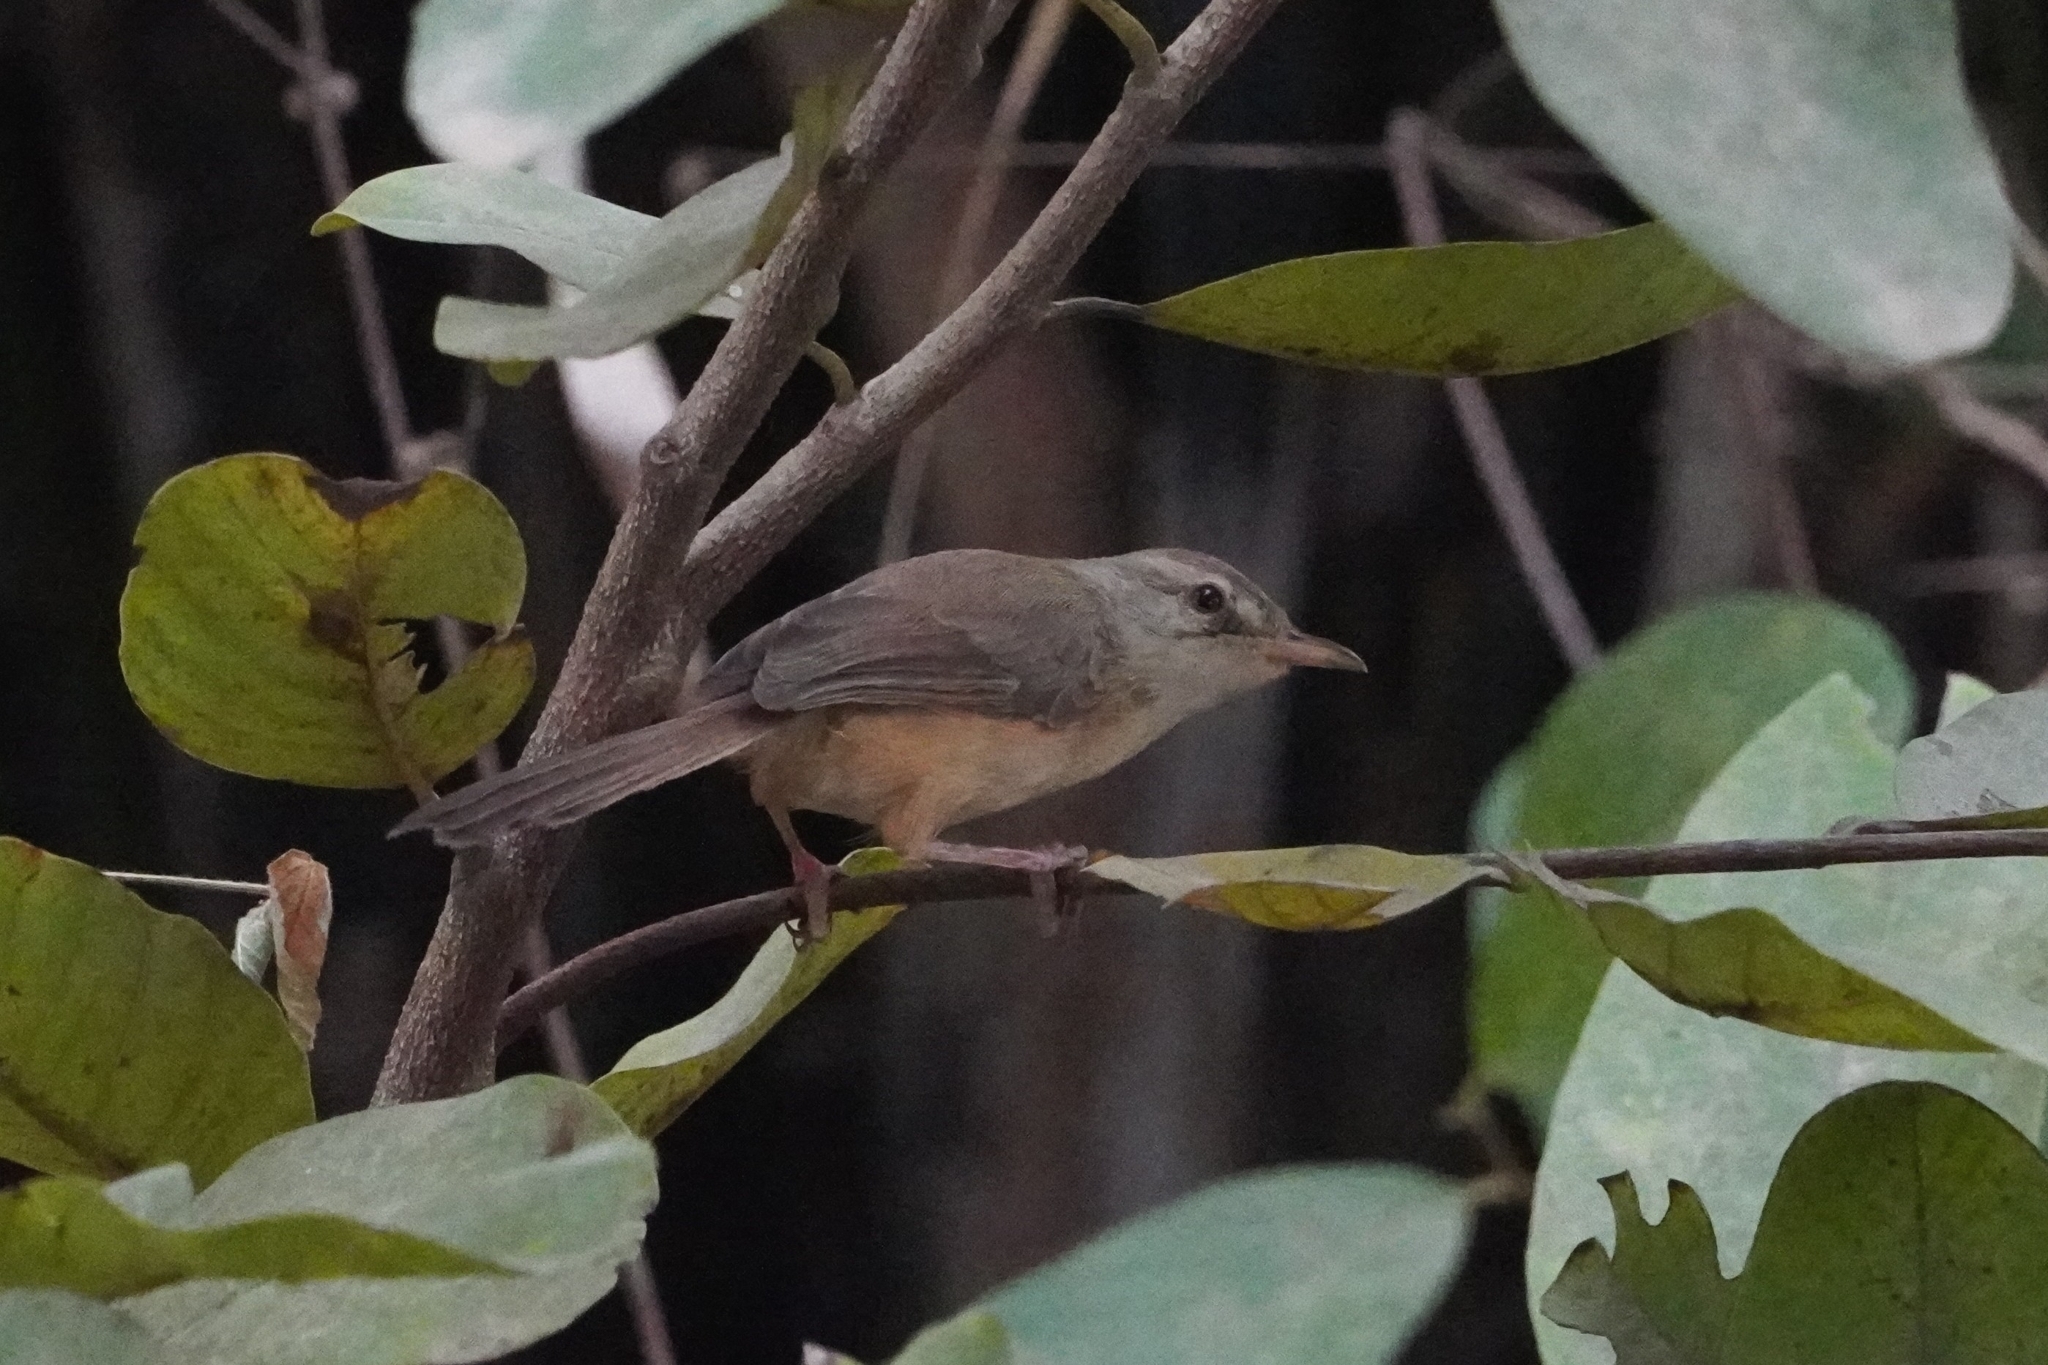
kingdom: Animalia
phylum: Chordata
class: Aves
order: Passeriformes
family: Cisticolidae
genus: Prinia
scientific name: Prinia subflava
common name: Tawny-flanked prinia
